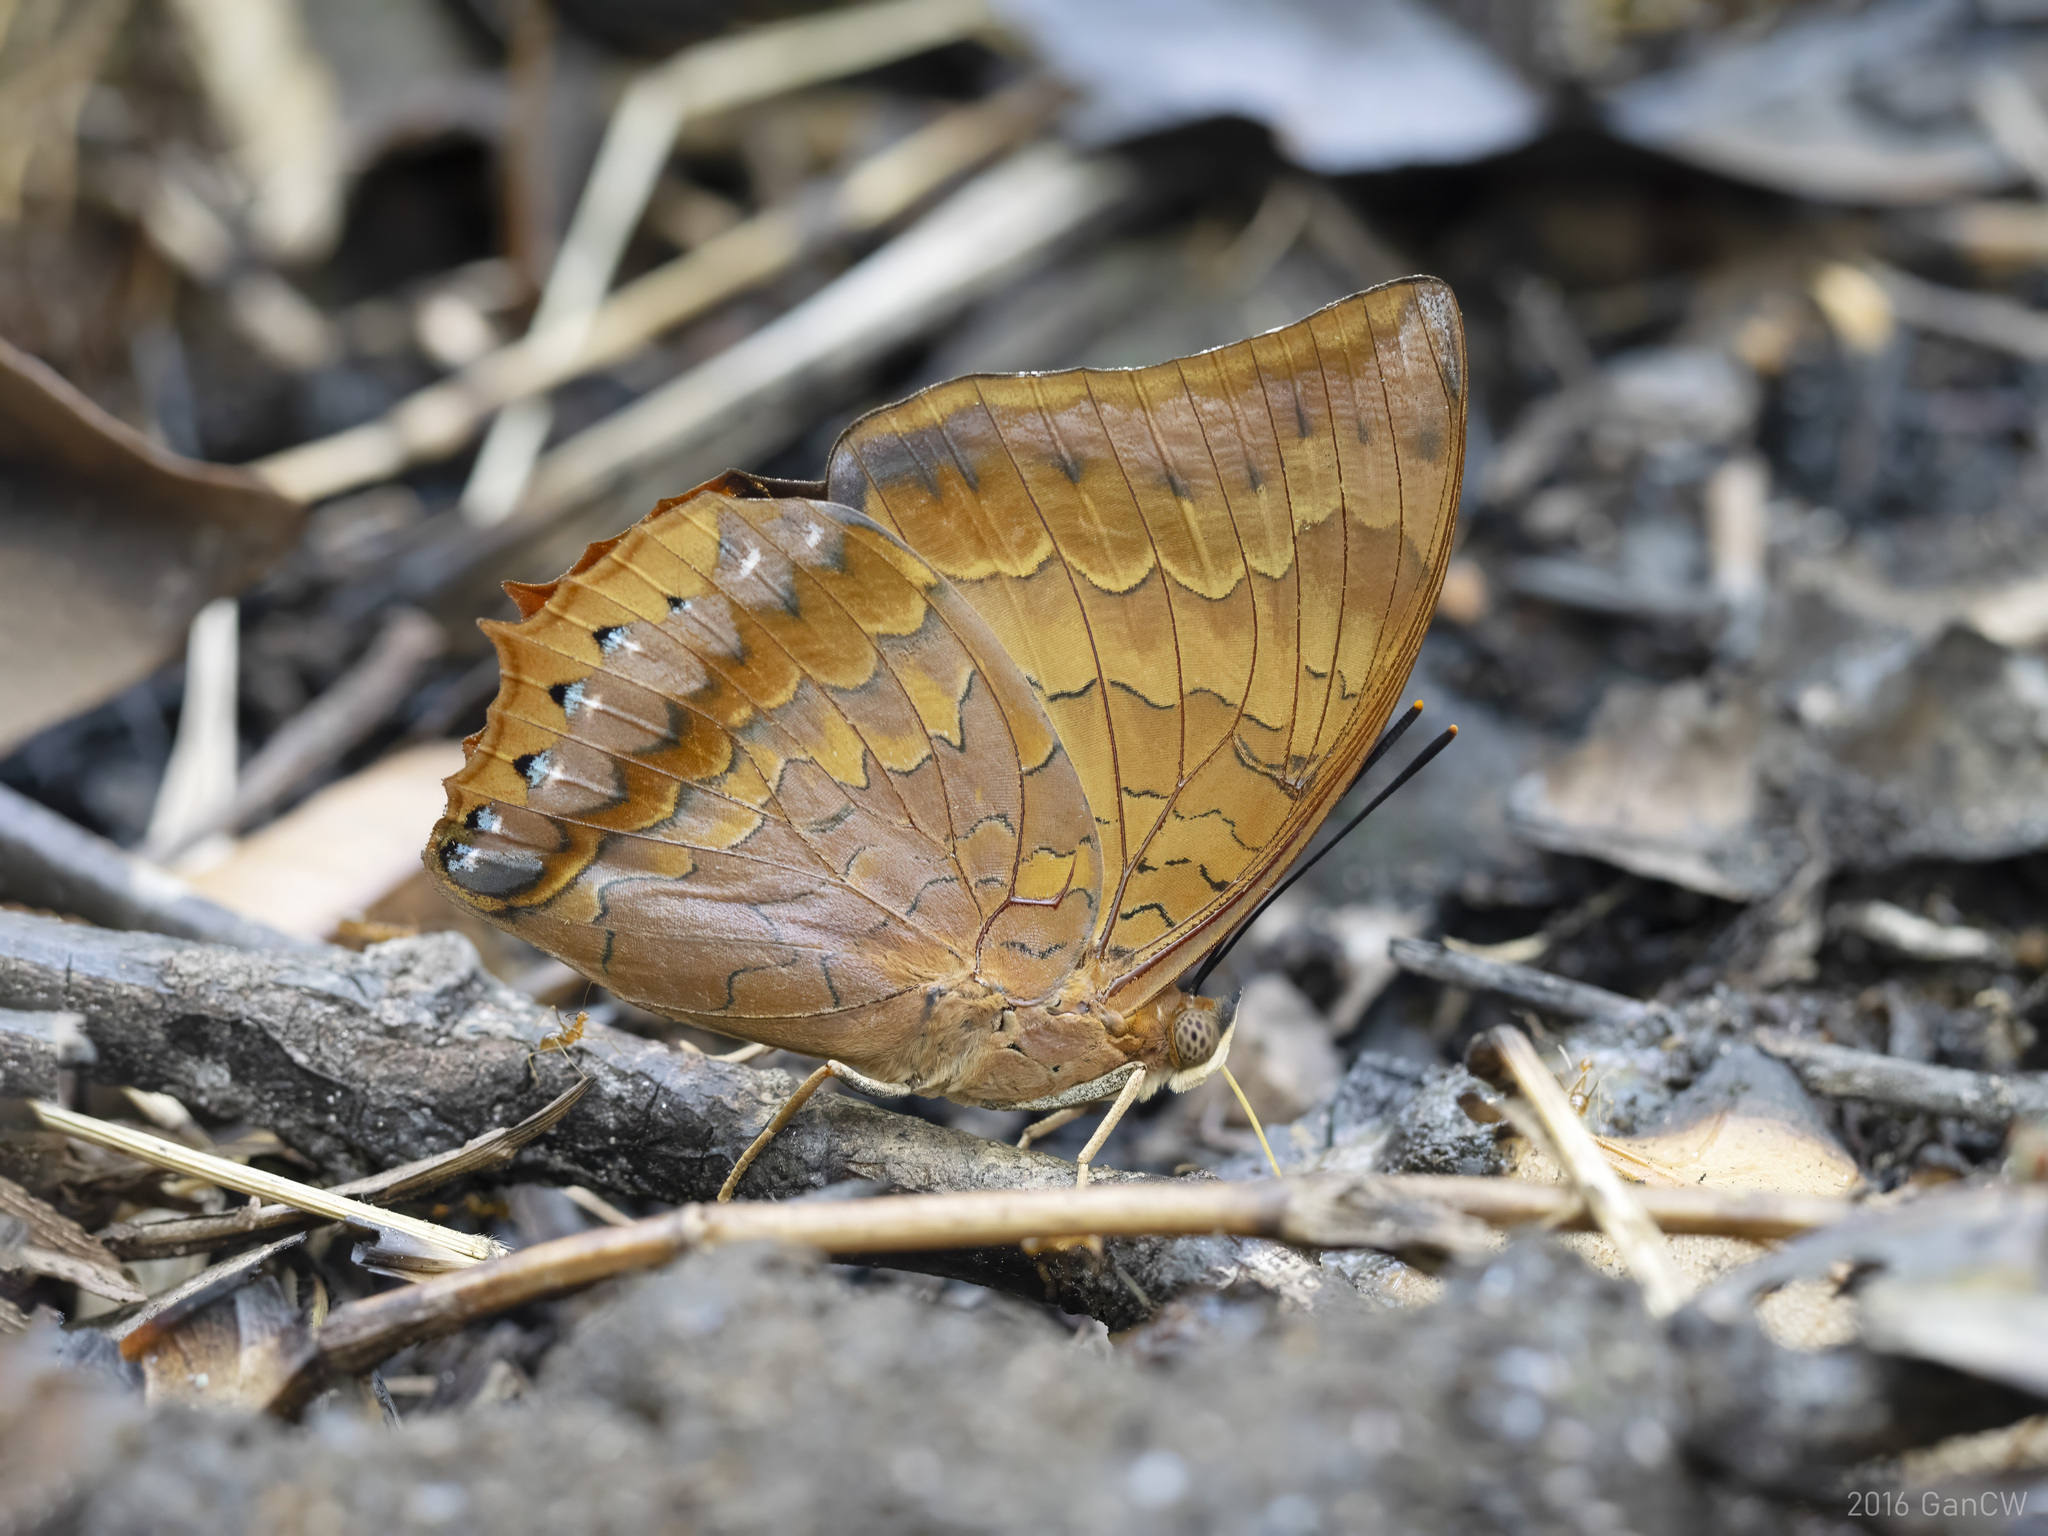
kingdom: Animalia
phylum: Arthropoda
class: Insecta
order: Lepidoptera
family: Nymphalidae
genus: Charaxes
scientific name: Charaxes bernardus
